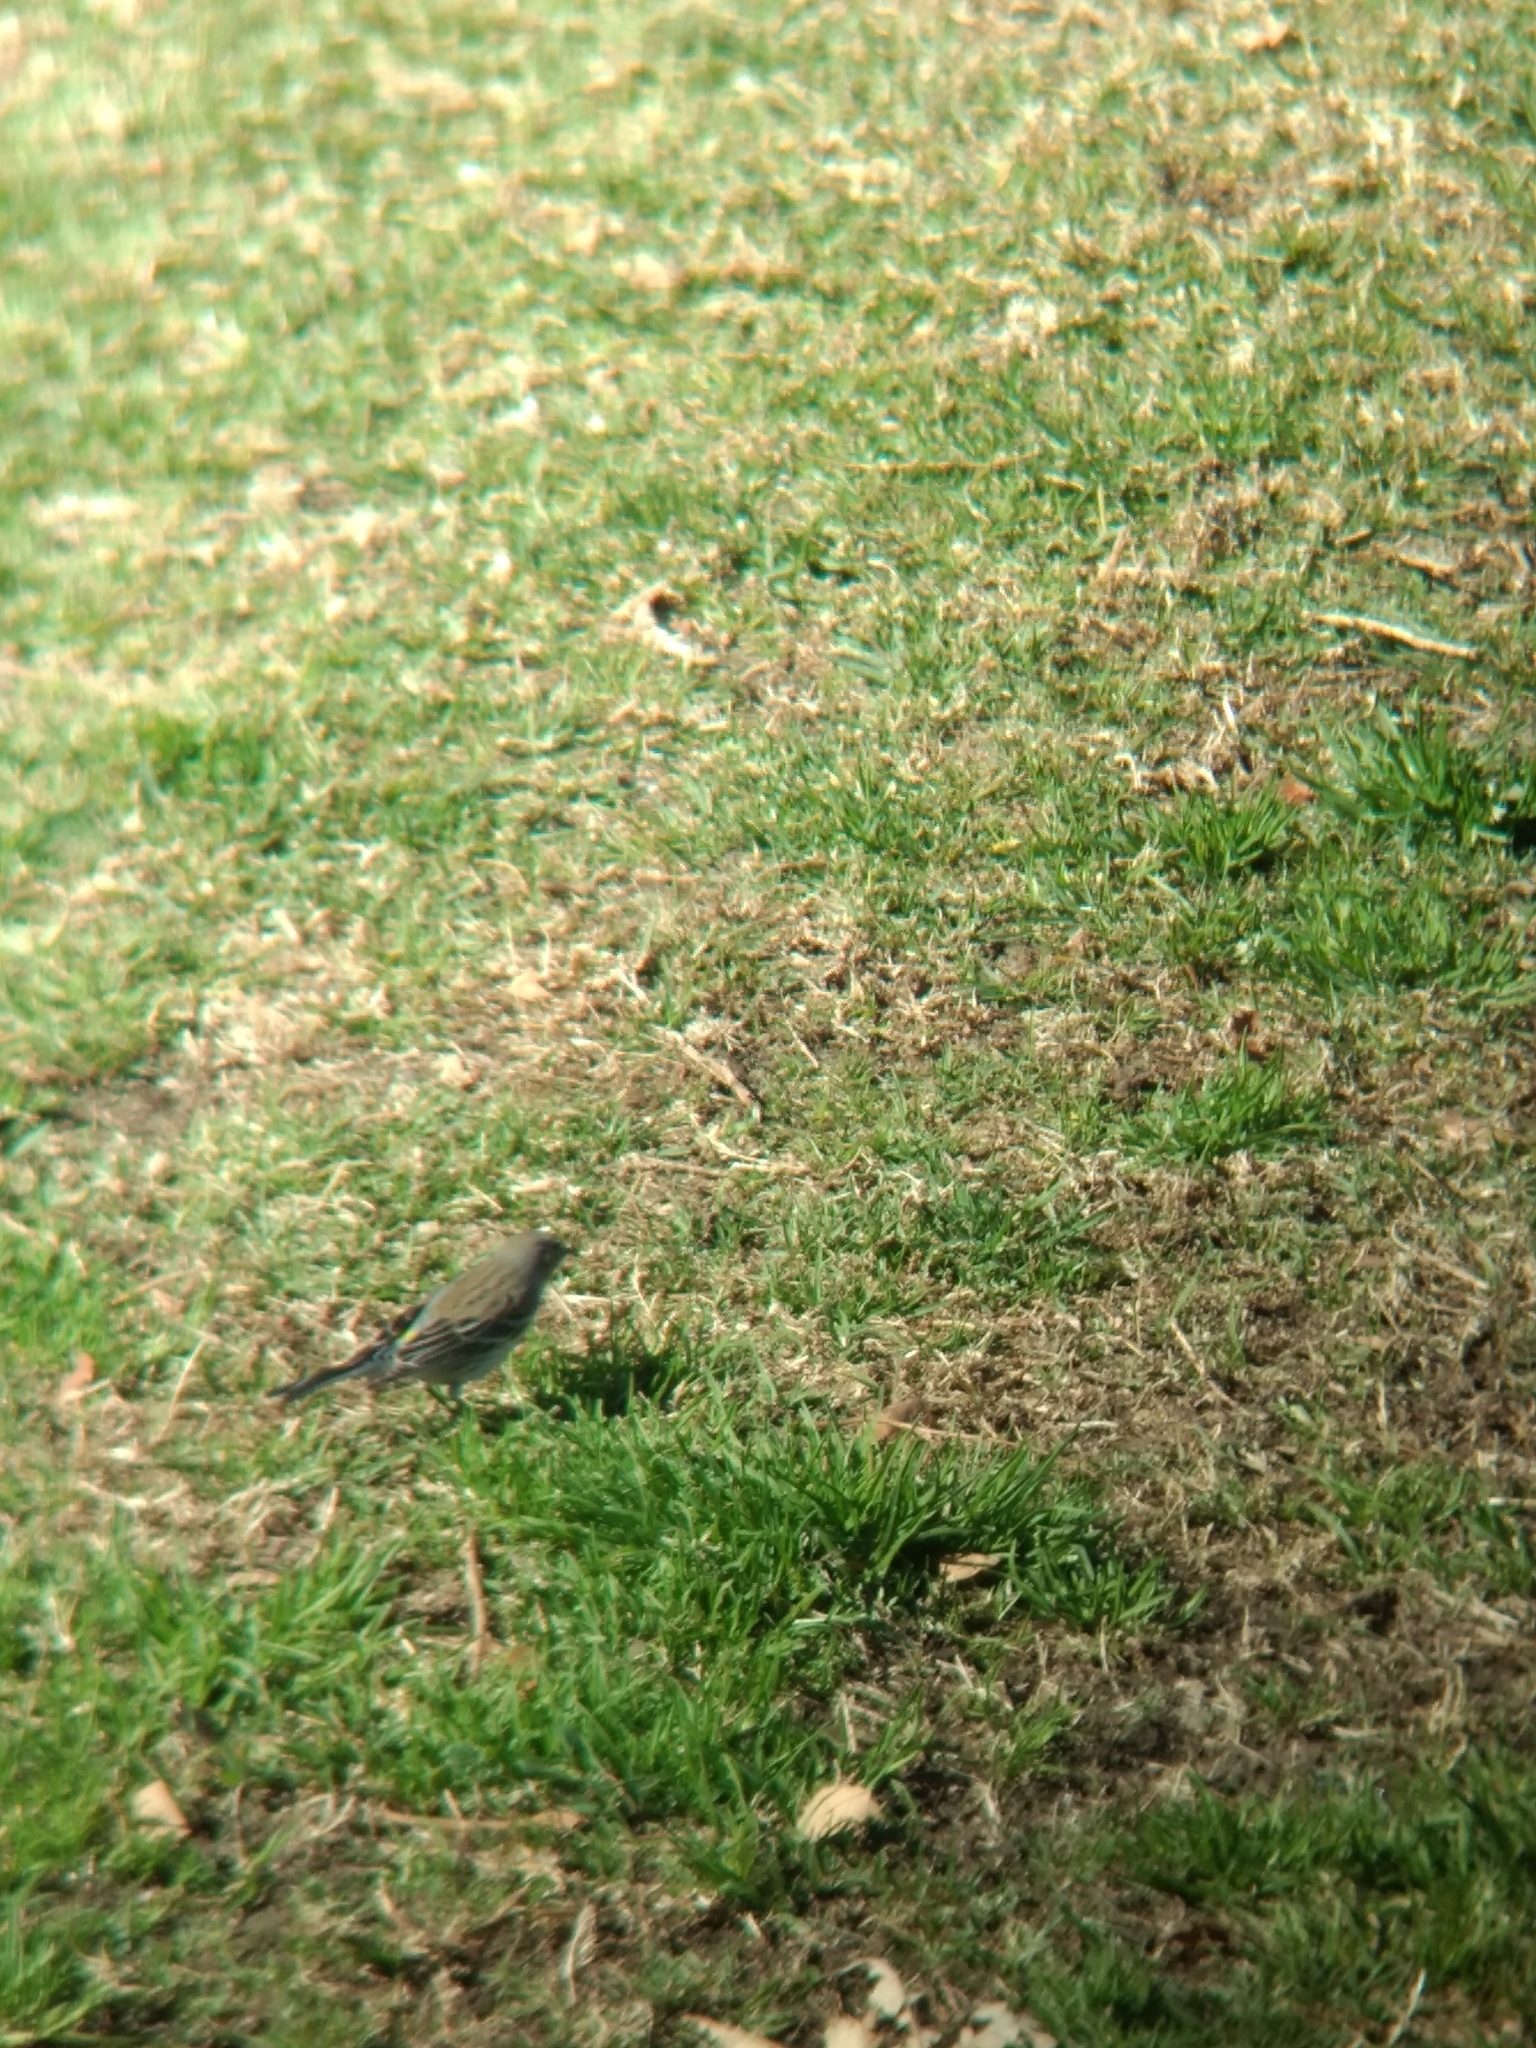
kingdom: Animalia
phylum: Chordata
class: Aves
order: Passeriformes
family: Parulidae
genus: Setophaga
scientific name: Setophaga coronata
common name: Myrtle warbler
